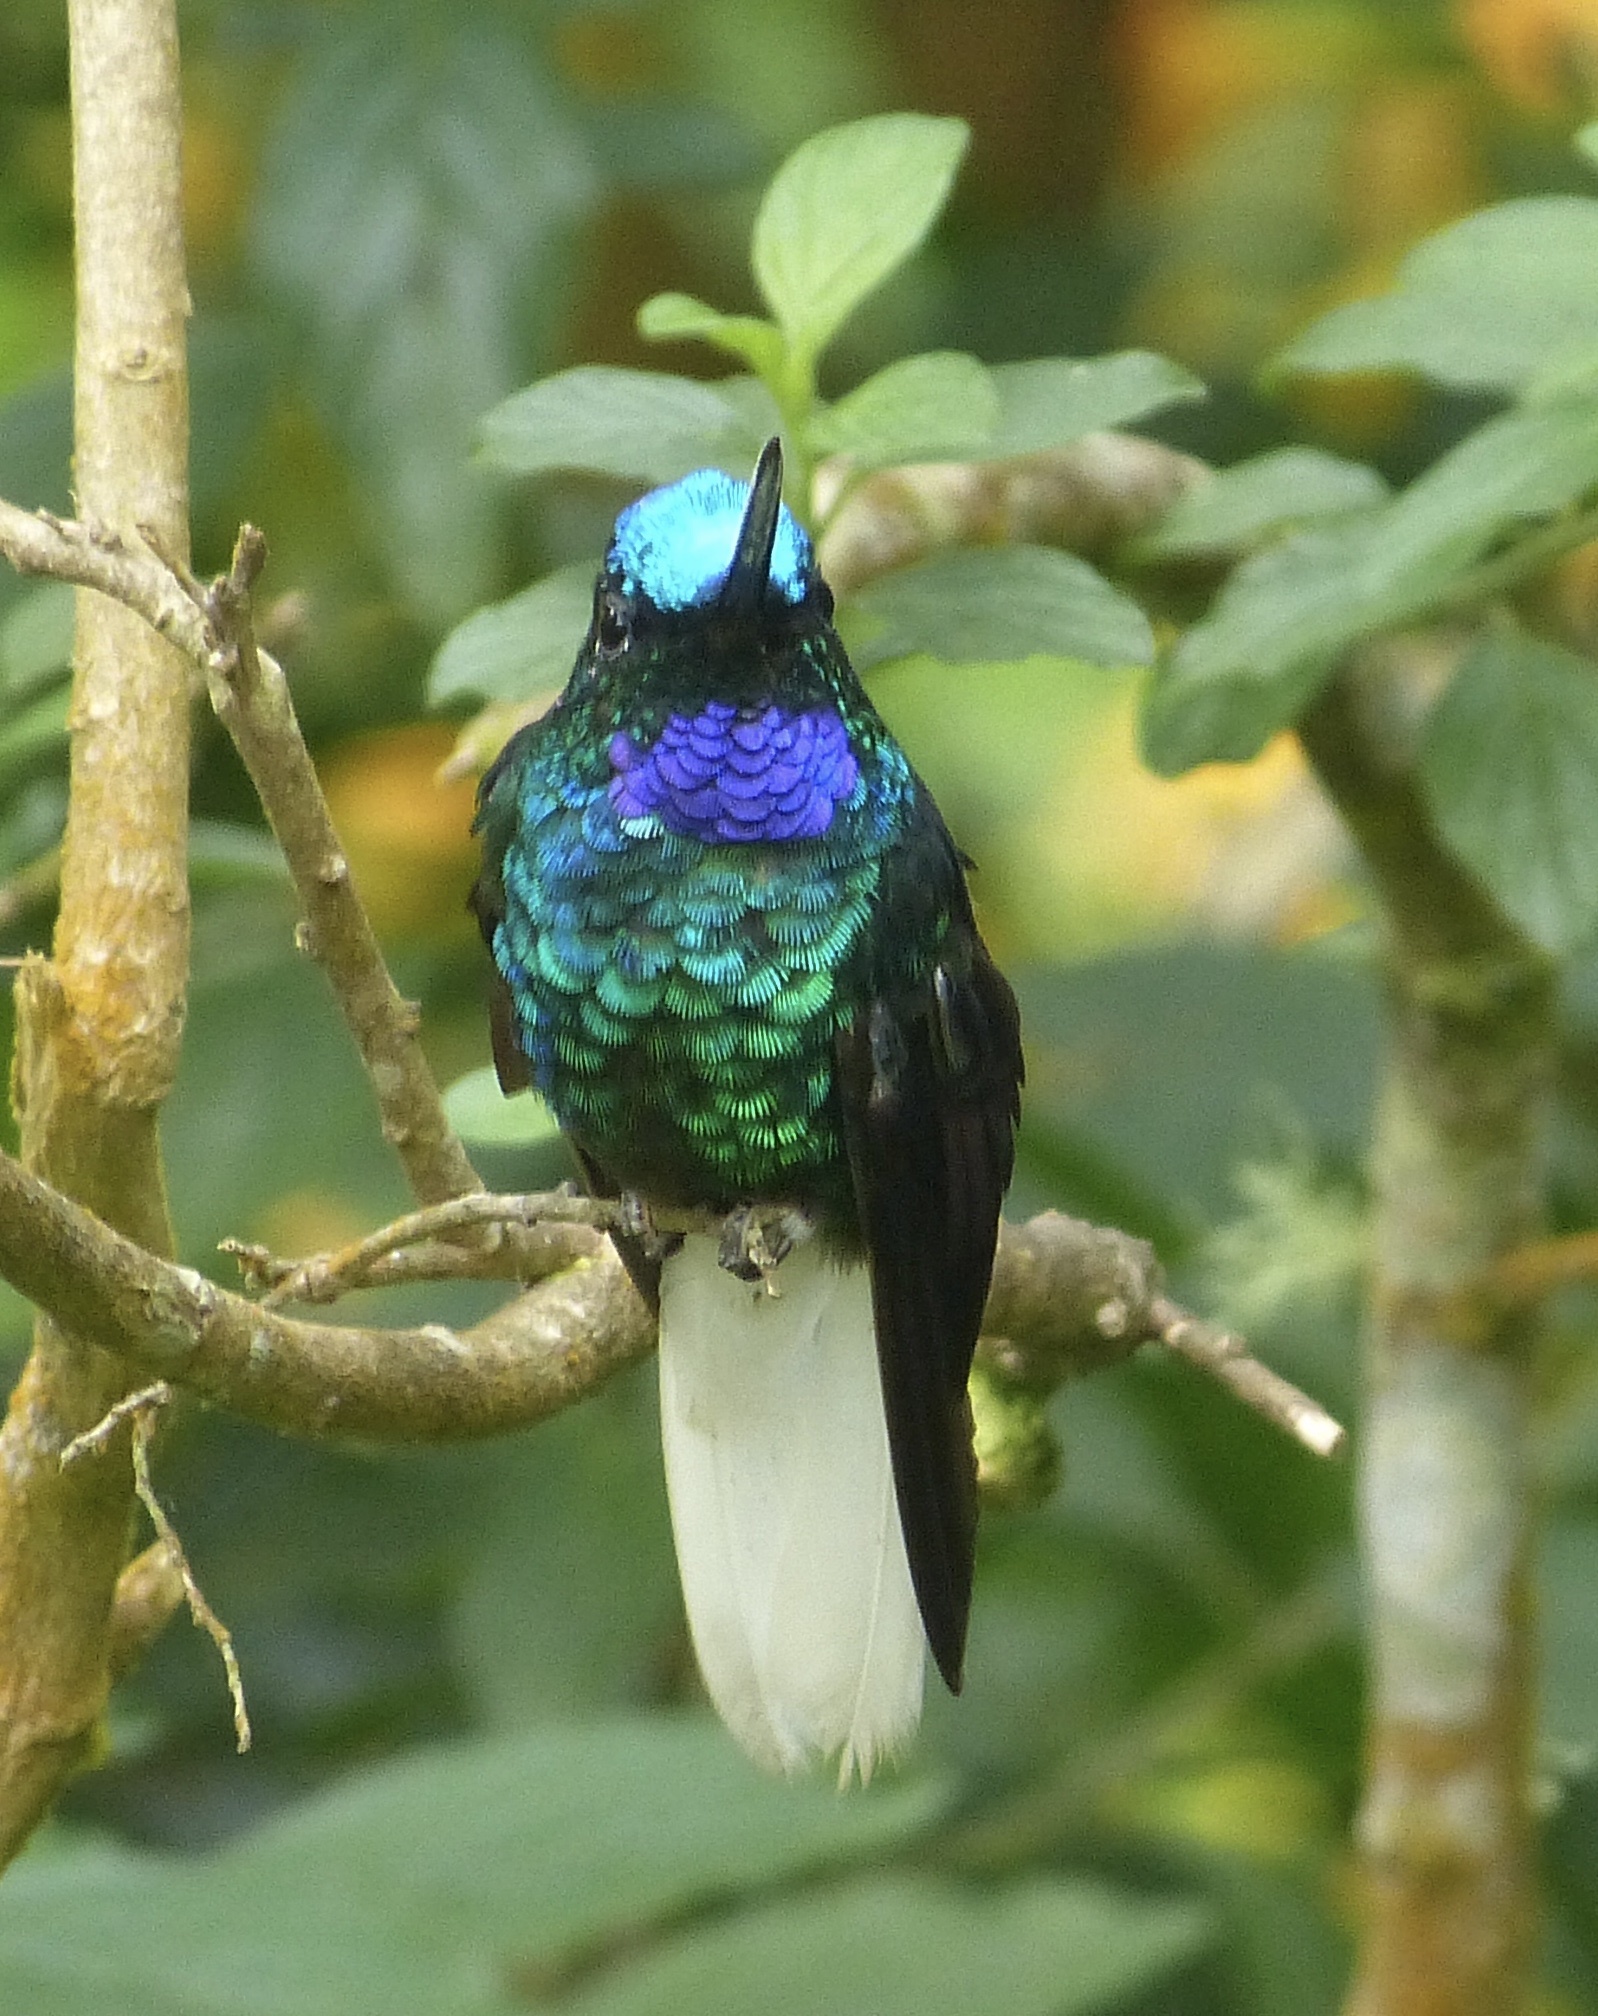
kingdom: Animalia
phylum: Chordata
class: Aves
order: Apodiformes
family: Trochilidae
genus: Coeligena
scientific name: Coeligena phalerata
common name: White-tailed starfrontlet
